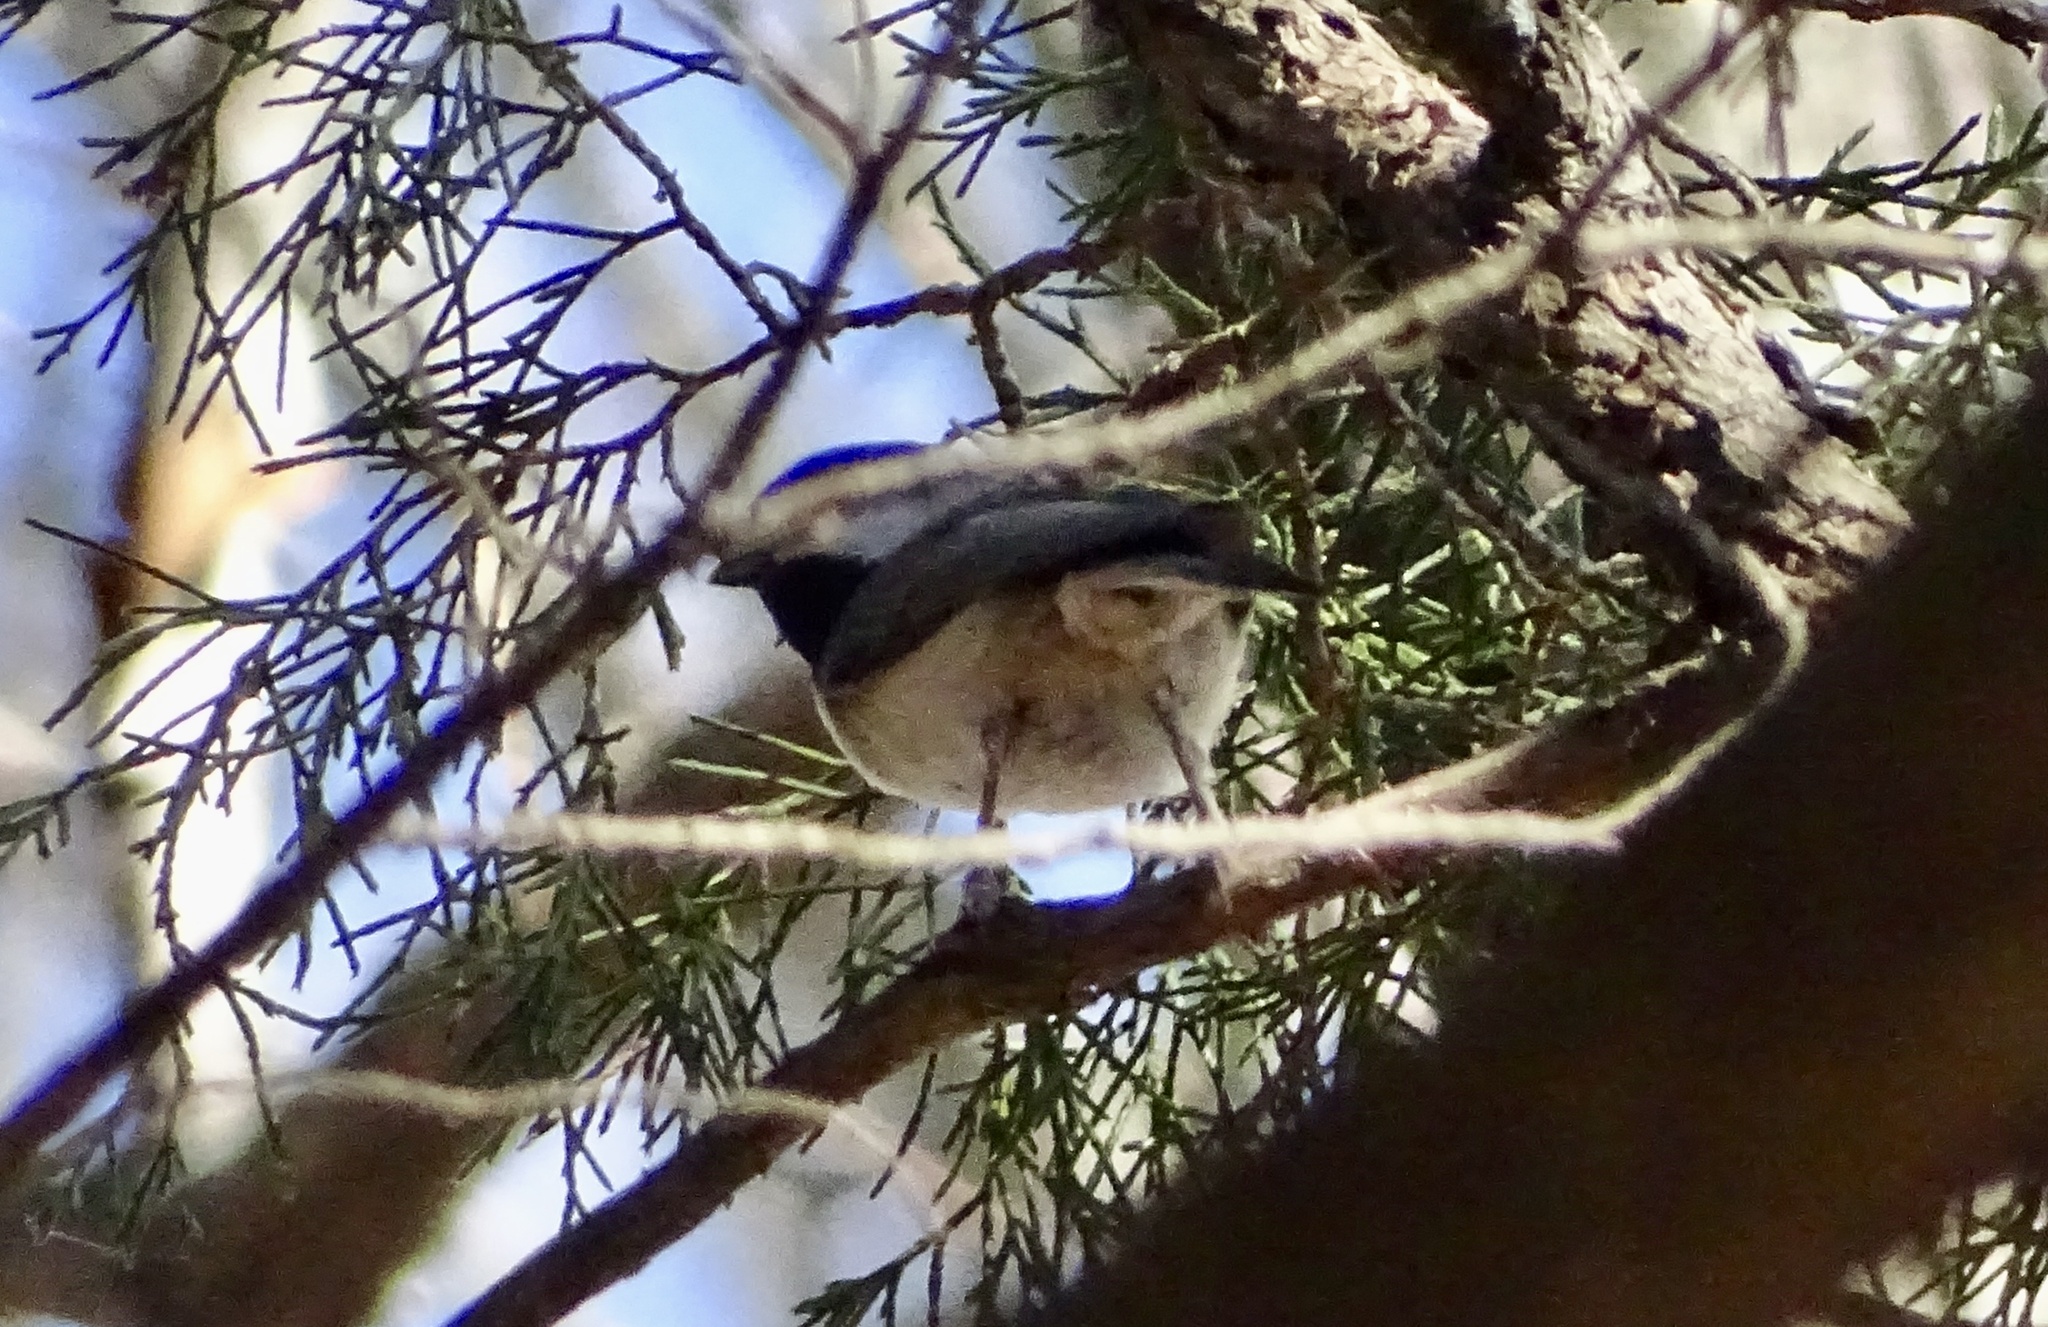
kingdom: Animalia
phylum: Chordata
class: Aves
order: Passeriformes
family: Paridae
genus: Poecile
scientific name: Poecile carolinensis
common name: Carolina chickadee
